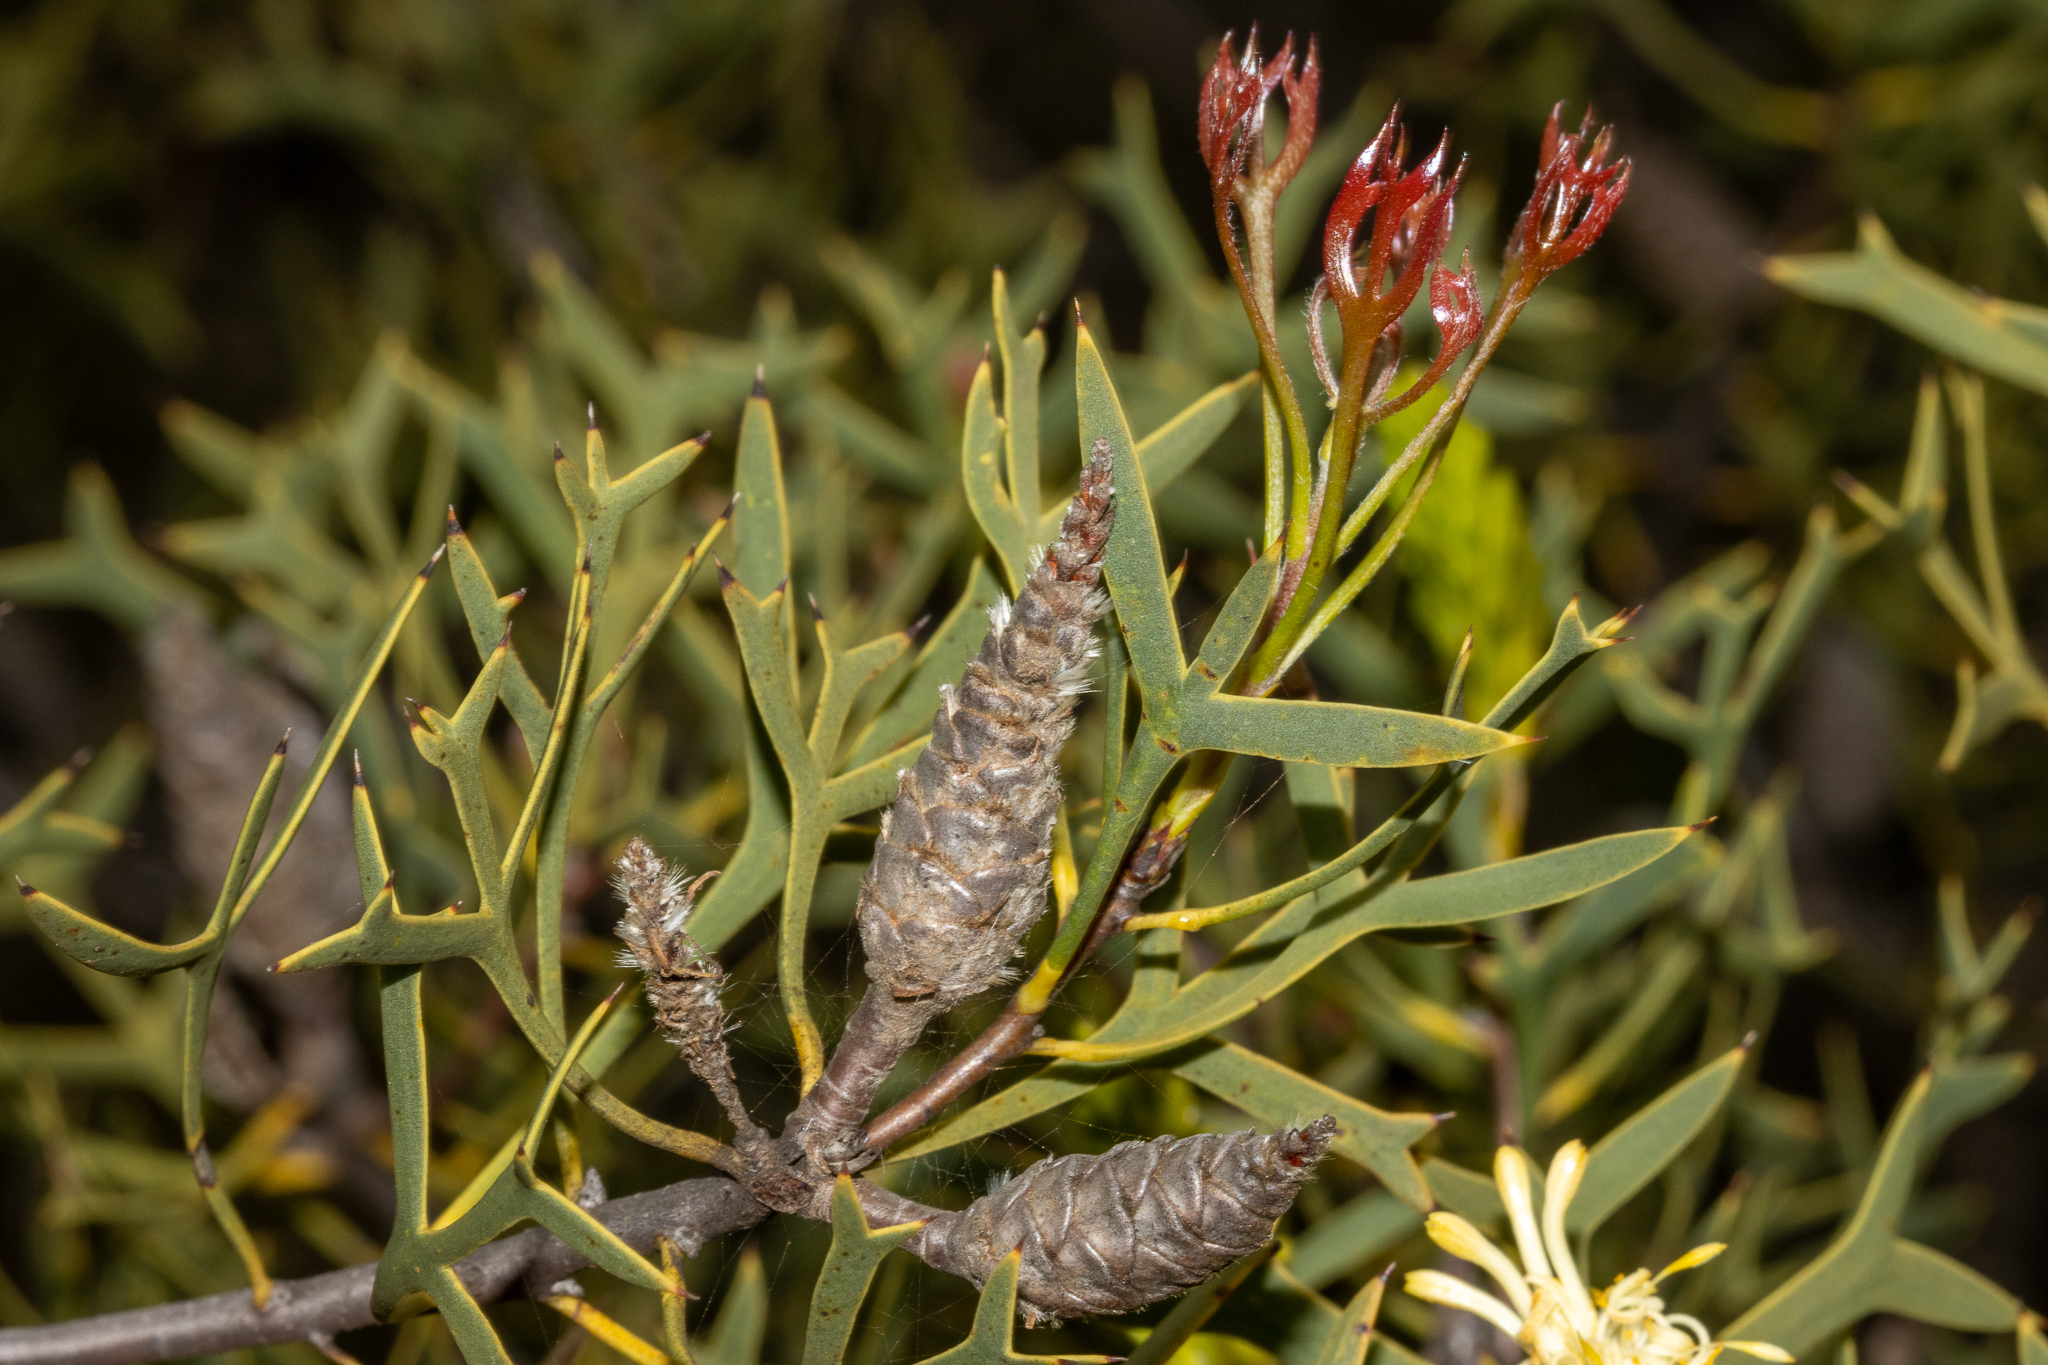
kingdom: Plantae
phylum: Tracheophyta
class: Magnoliopsida
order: Proteales
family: Proteaceae
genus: Petrophile
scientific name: Petrophile shuttleworthiana
